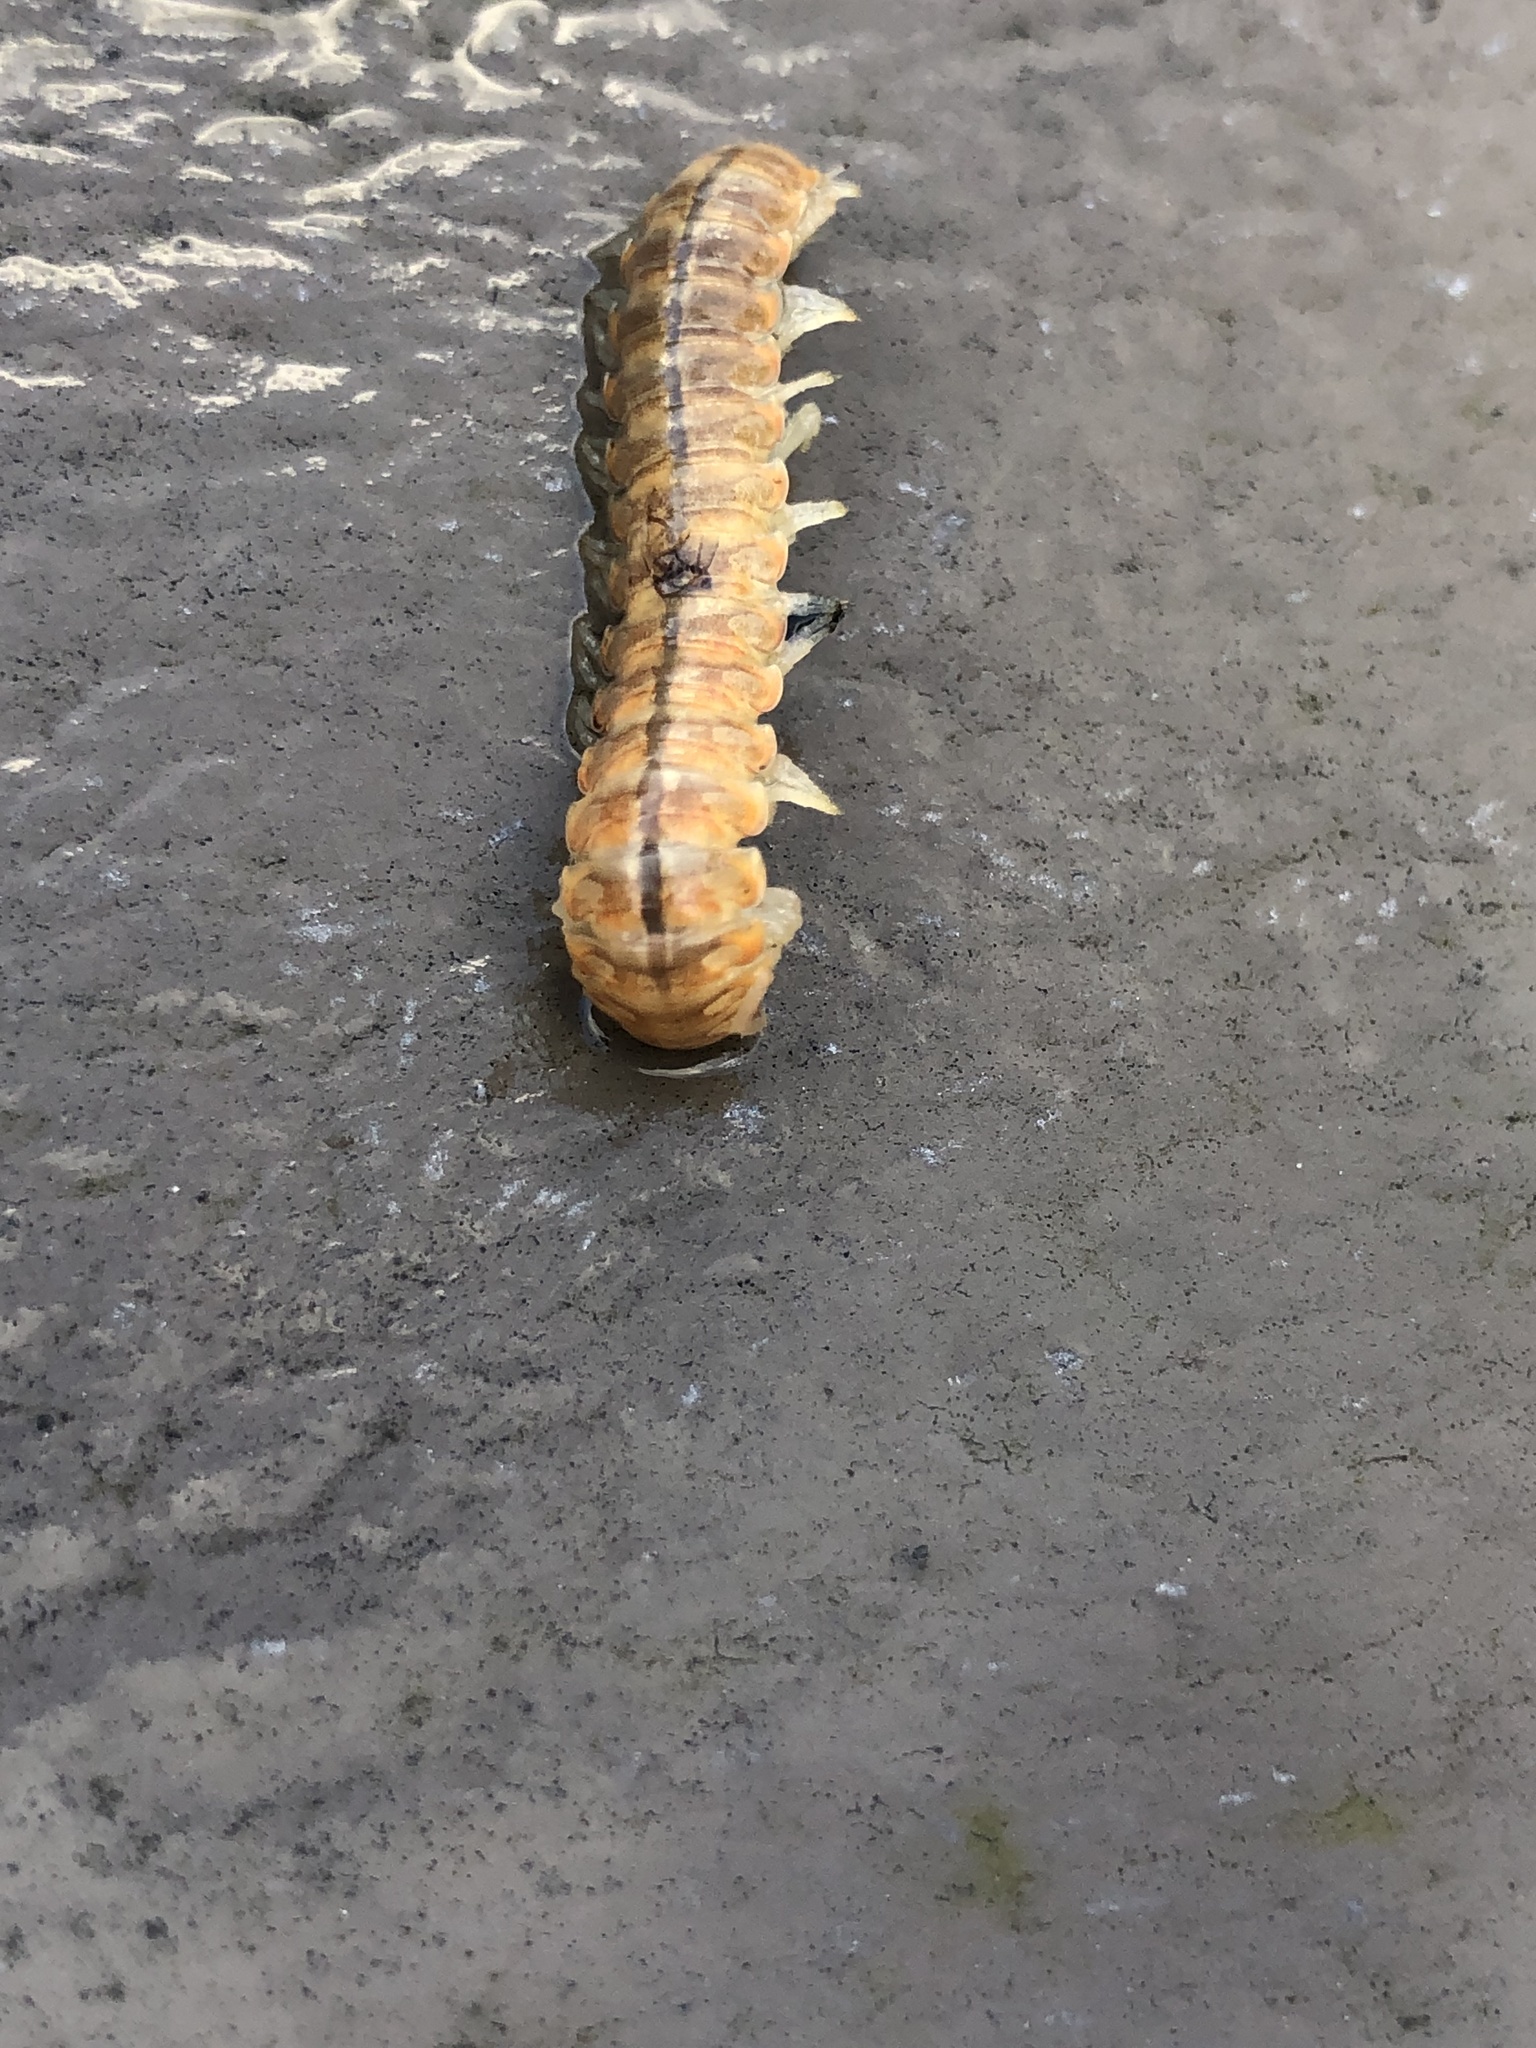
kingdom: Animalia
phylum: Arthropoda
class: Diplopoda
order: Polydesmida
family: Xystodesmidae
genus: Xystocheir
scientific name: Xystocheir dissecta
